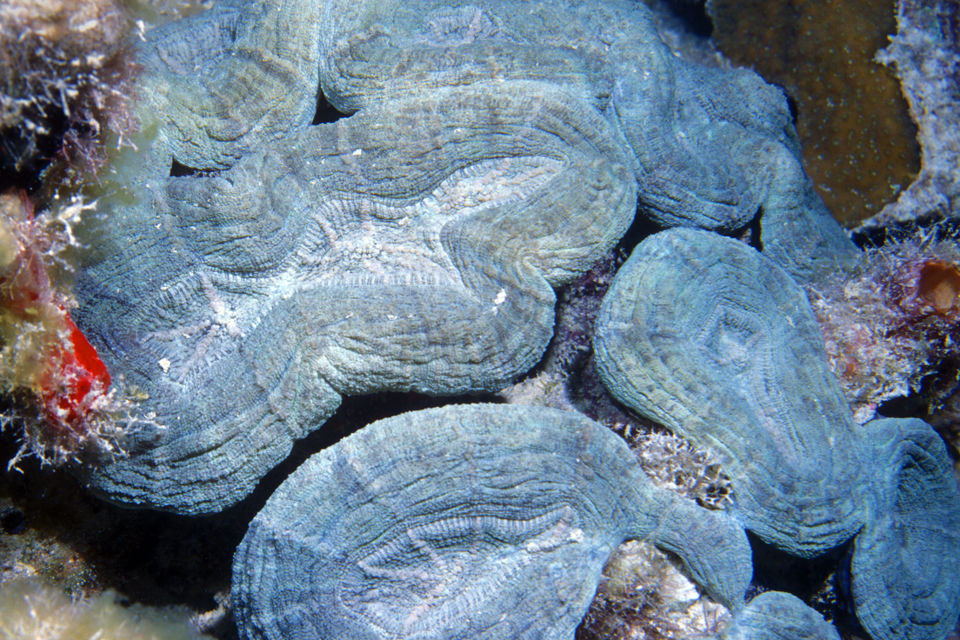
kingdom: Animalia
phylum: Cnidaria
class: Anthozoa
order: Scleractinia
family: Faviidae
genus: Mussa
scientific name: Mussa angulosa
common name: Spiny flower coral
